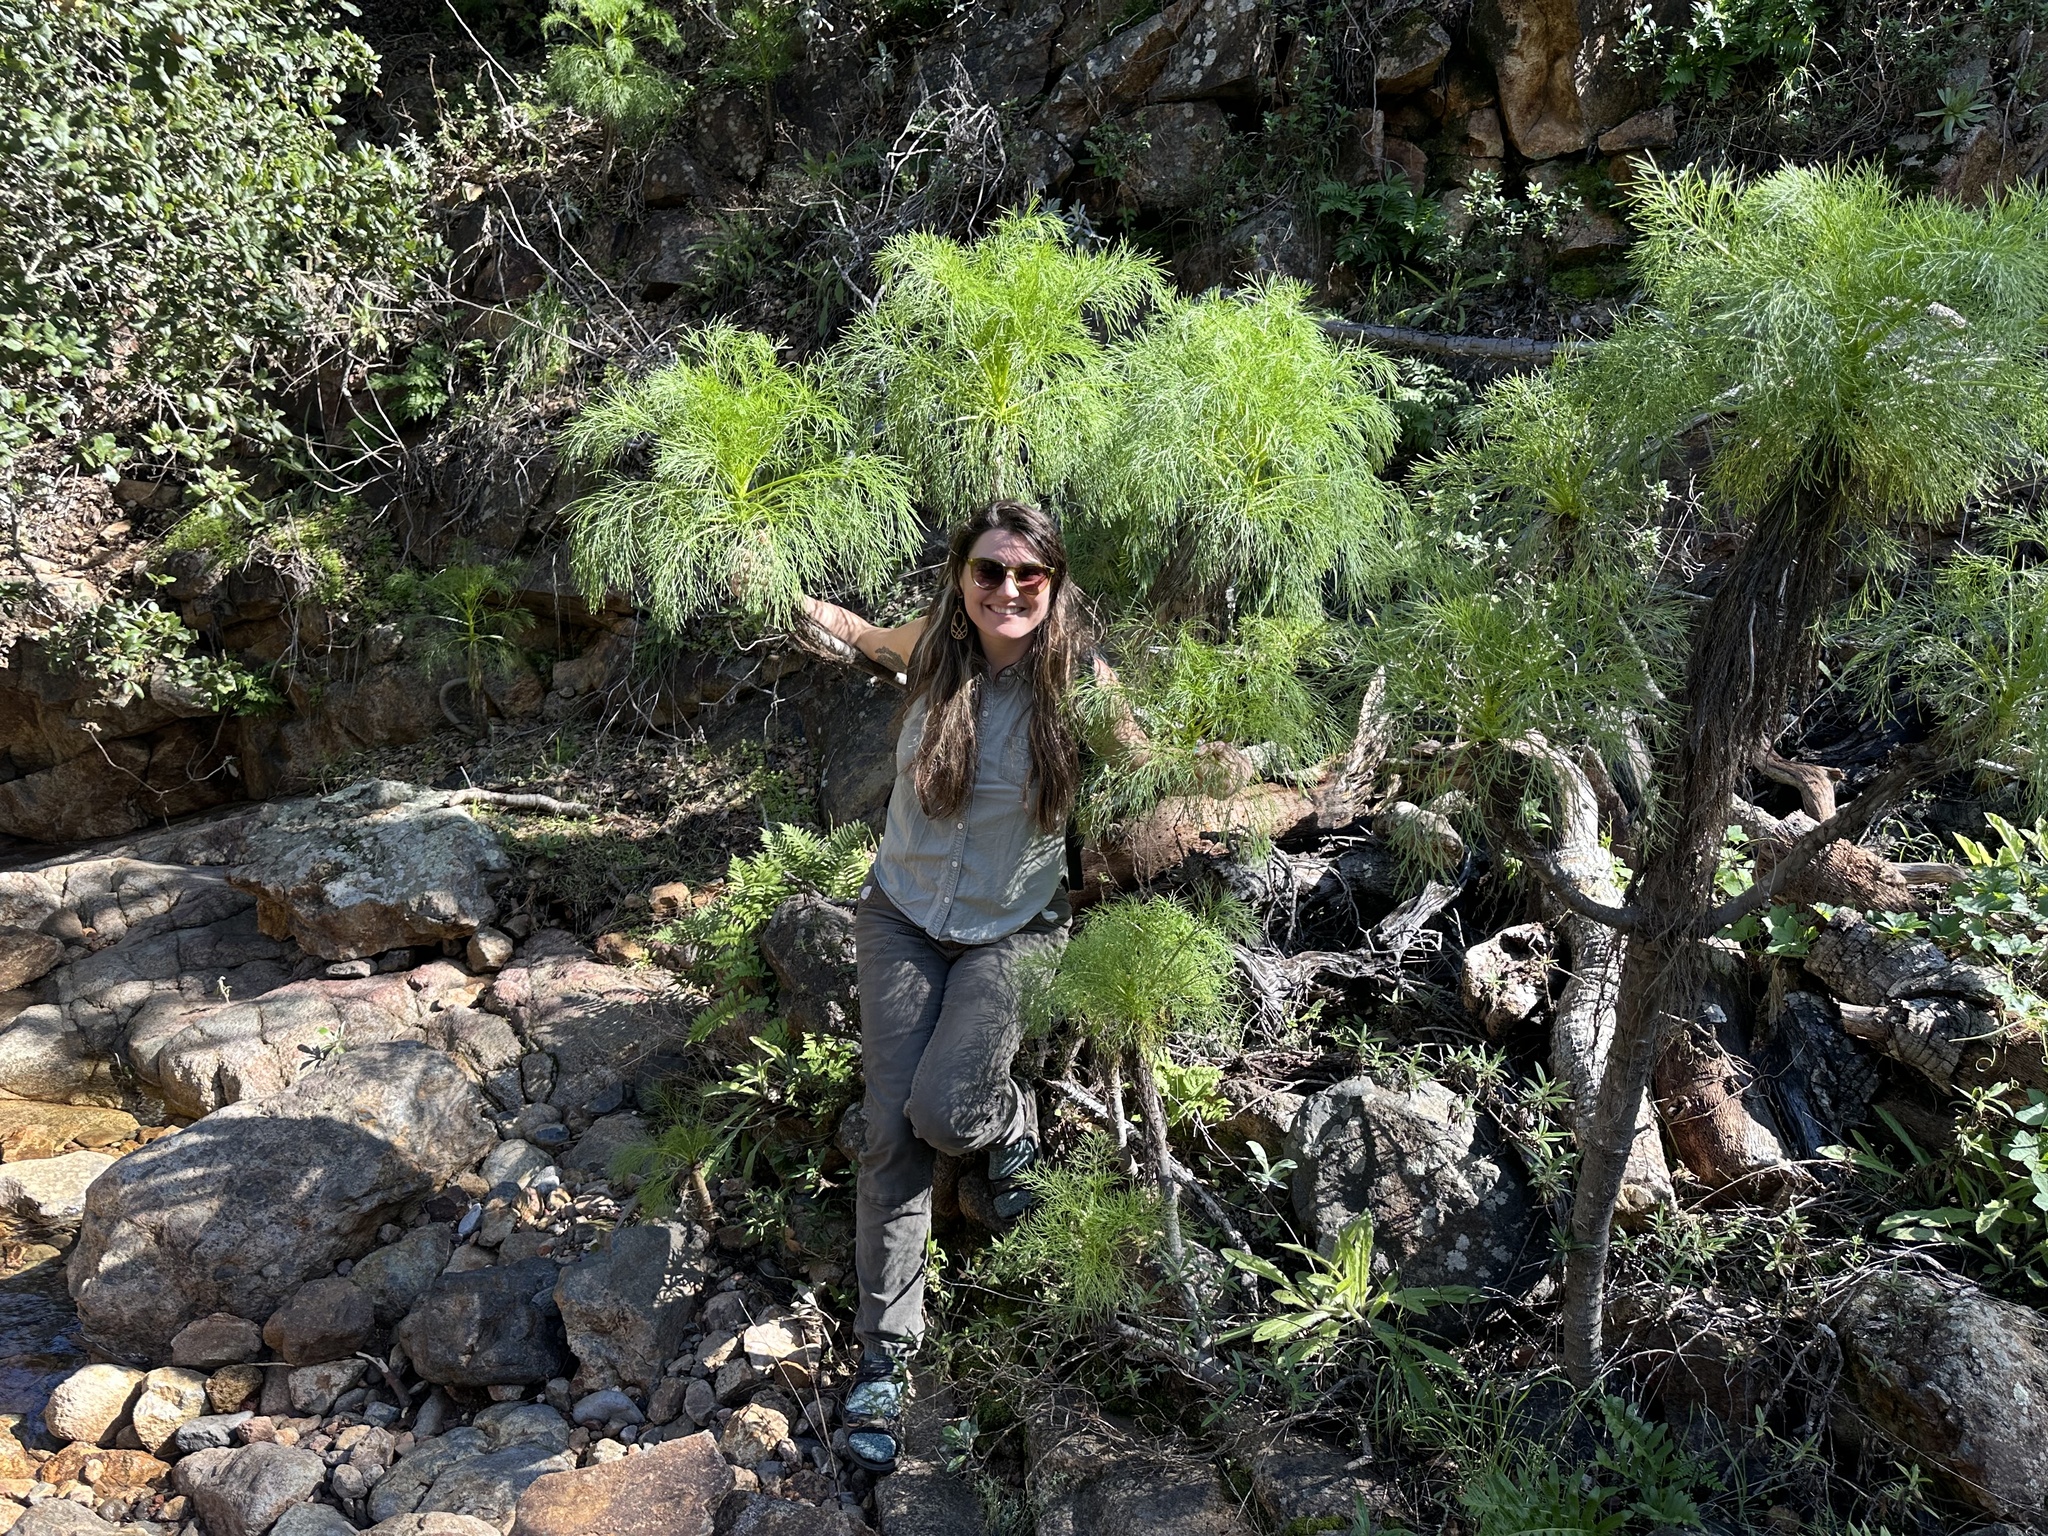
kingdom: Plantae
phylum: Tracheophyta
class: Magnoliopsida
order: Asterales
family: Asteraceae
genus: Coreopsis
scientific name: Coreopsis gigantea
